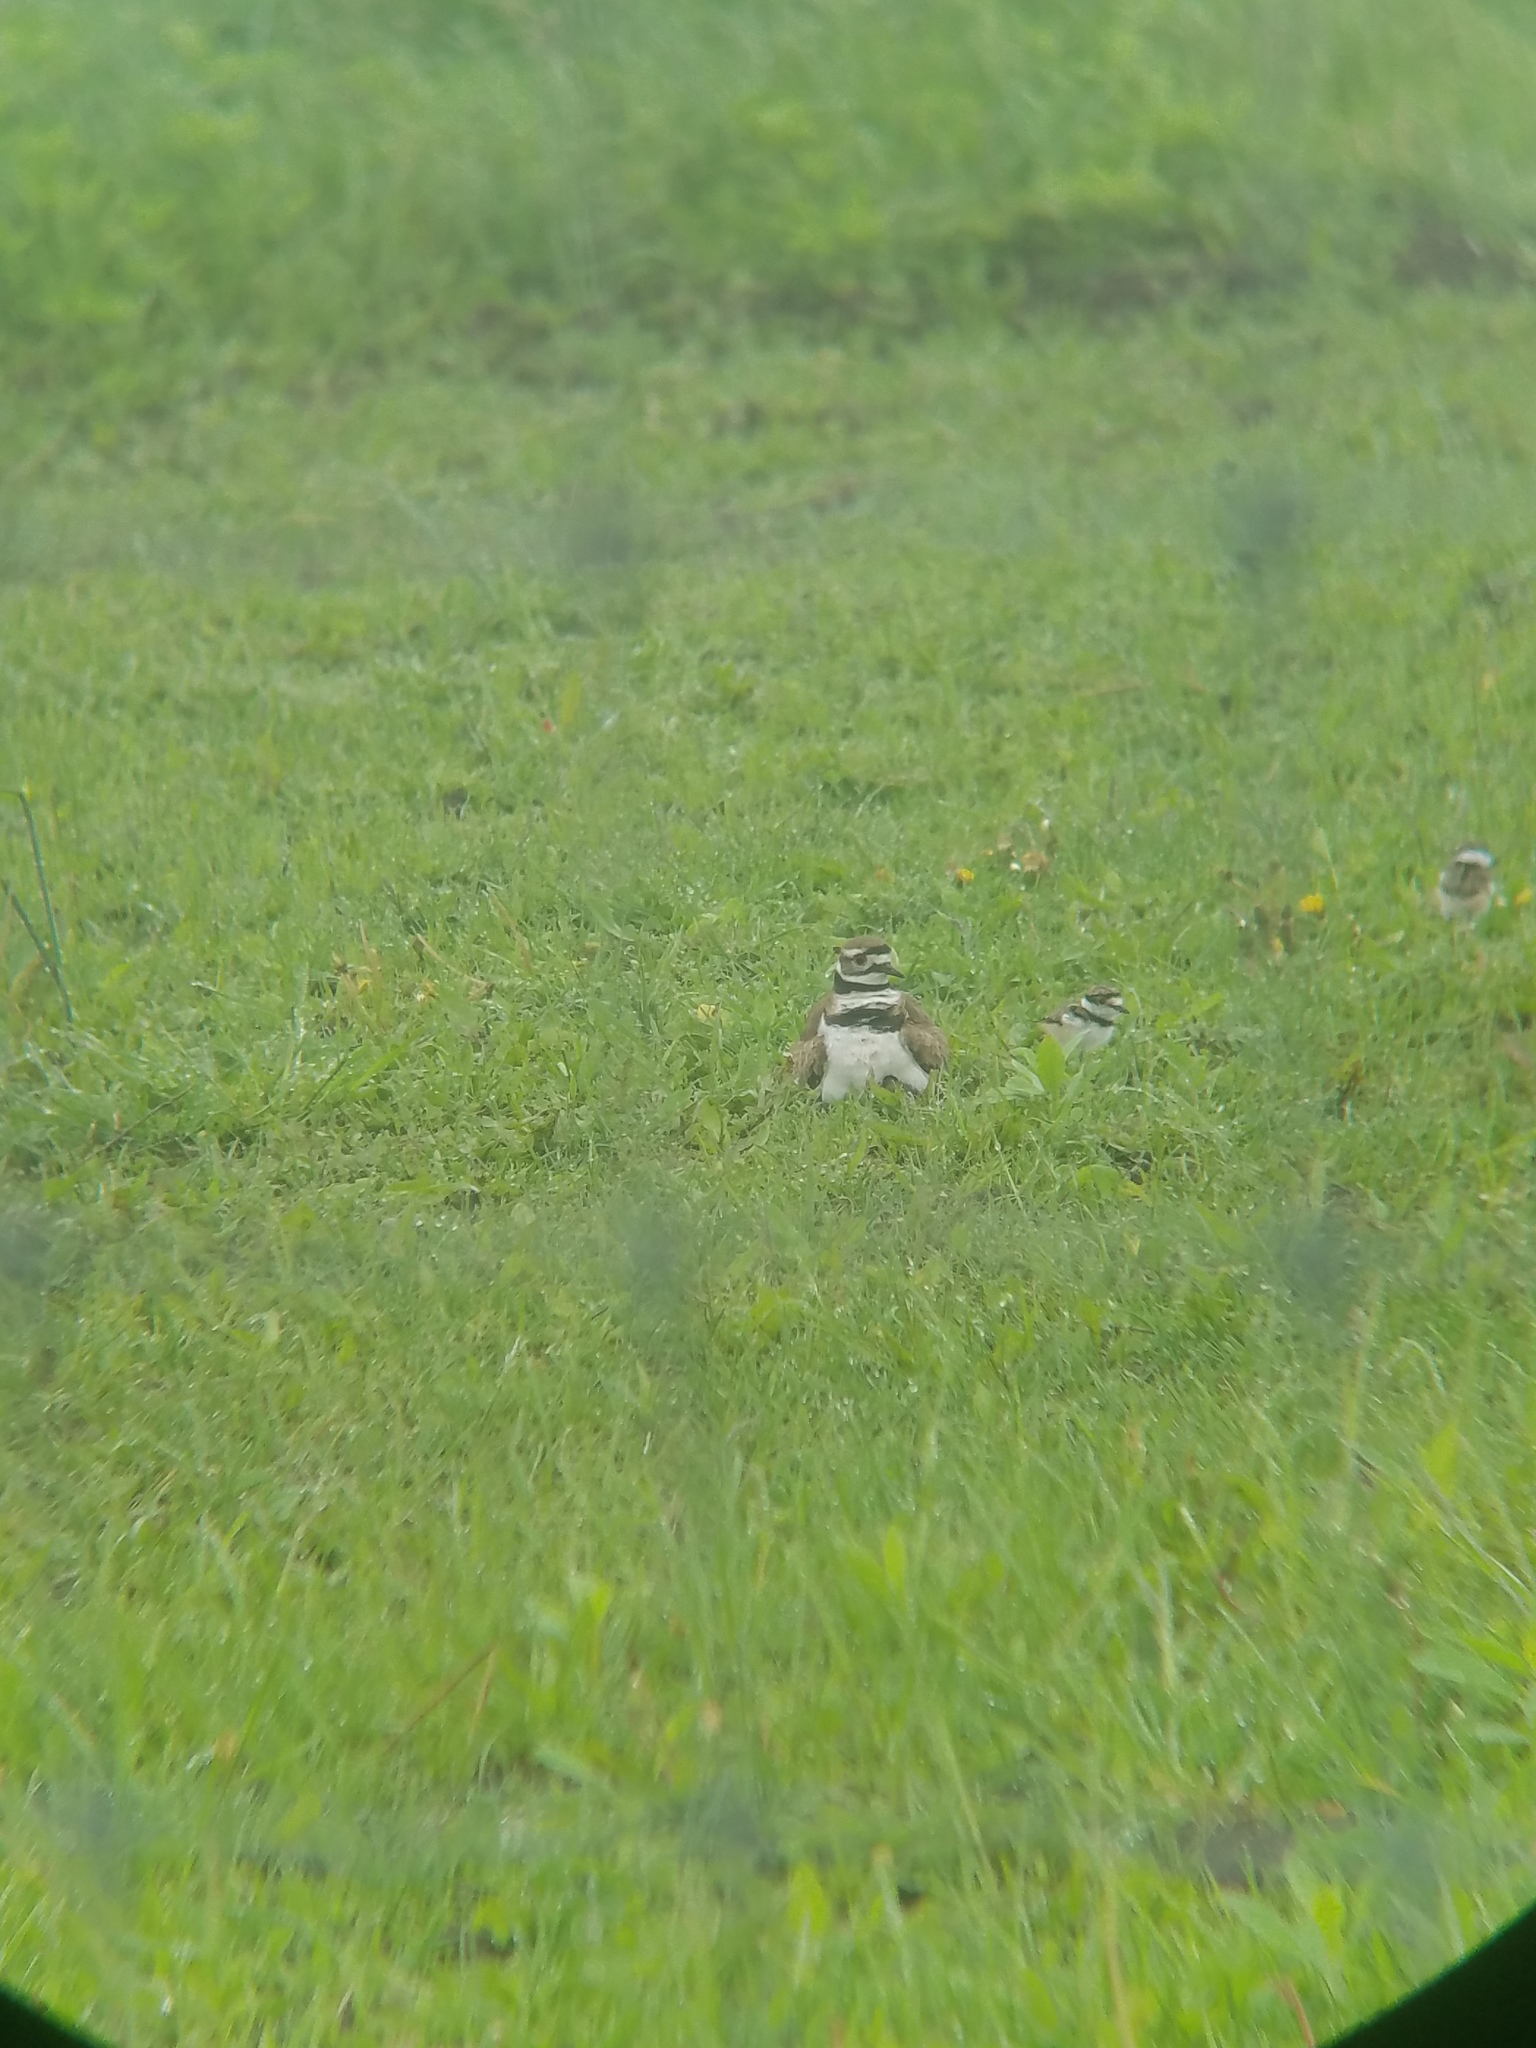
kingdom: Animalia
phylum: Chordata
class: Aves
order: Charadriiformes
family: Charadriidae
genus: Charadrius
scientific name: Charadrius vociferus
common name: Killdeer
